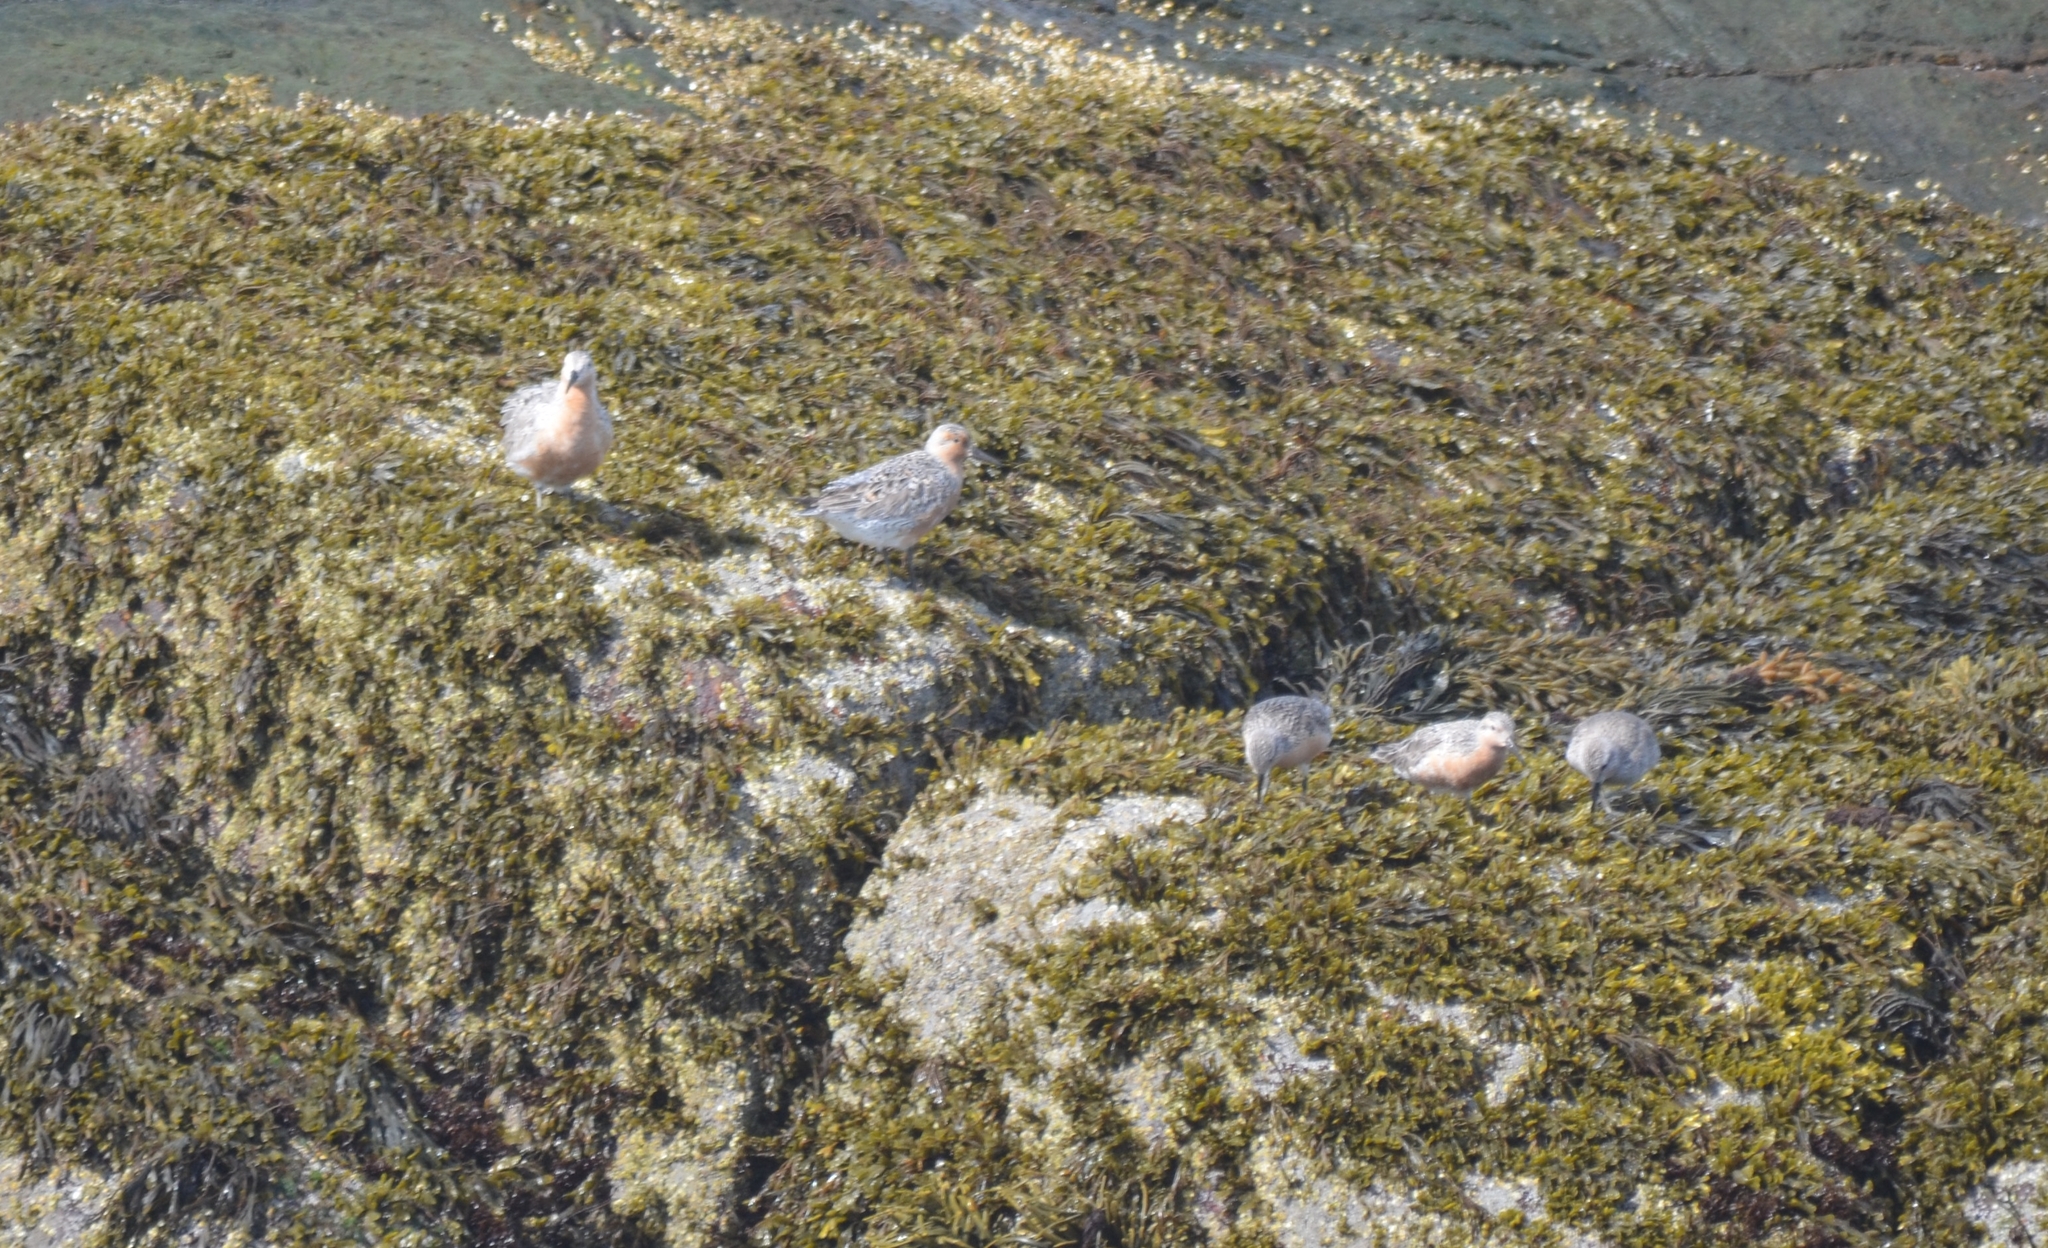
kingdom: Animalia
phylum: Chordata
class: Aves
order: Charadriiformes
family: Scolopacidae
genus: Calidris
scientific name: Calidris canutus
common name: Red knot
